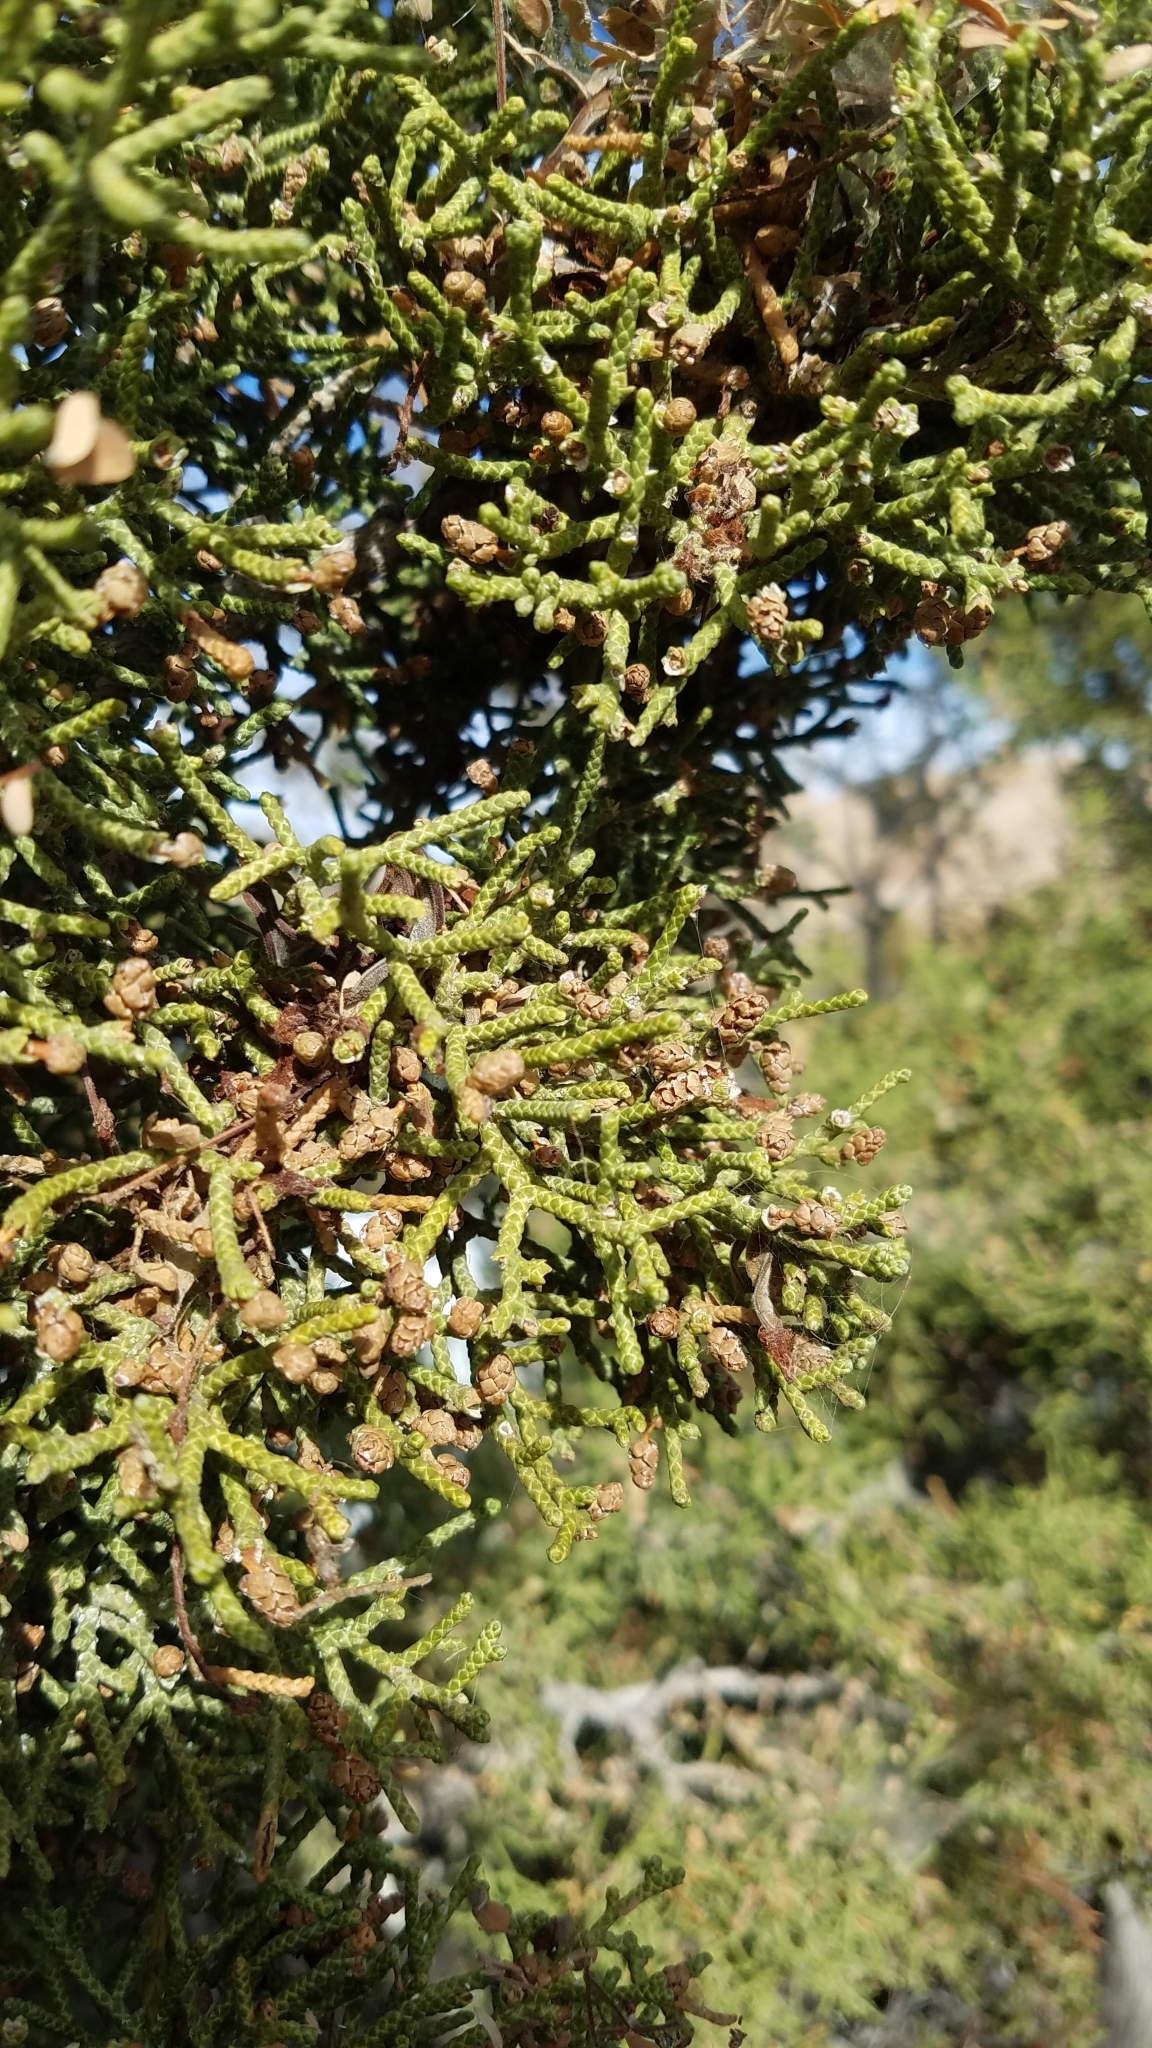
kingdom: Plantae
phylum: Tracheophyta
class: Pinopsida
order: Pinales
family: Cupressaceae
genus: Juniperus
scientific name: Juniperus californica
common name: California juniper
